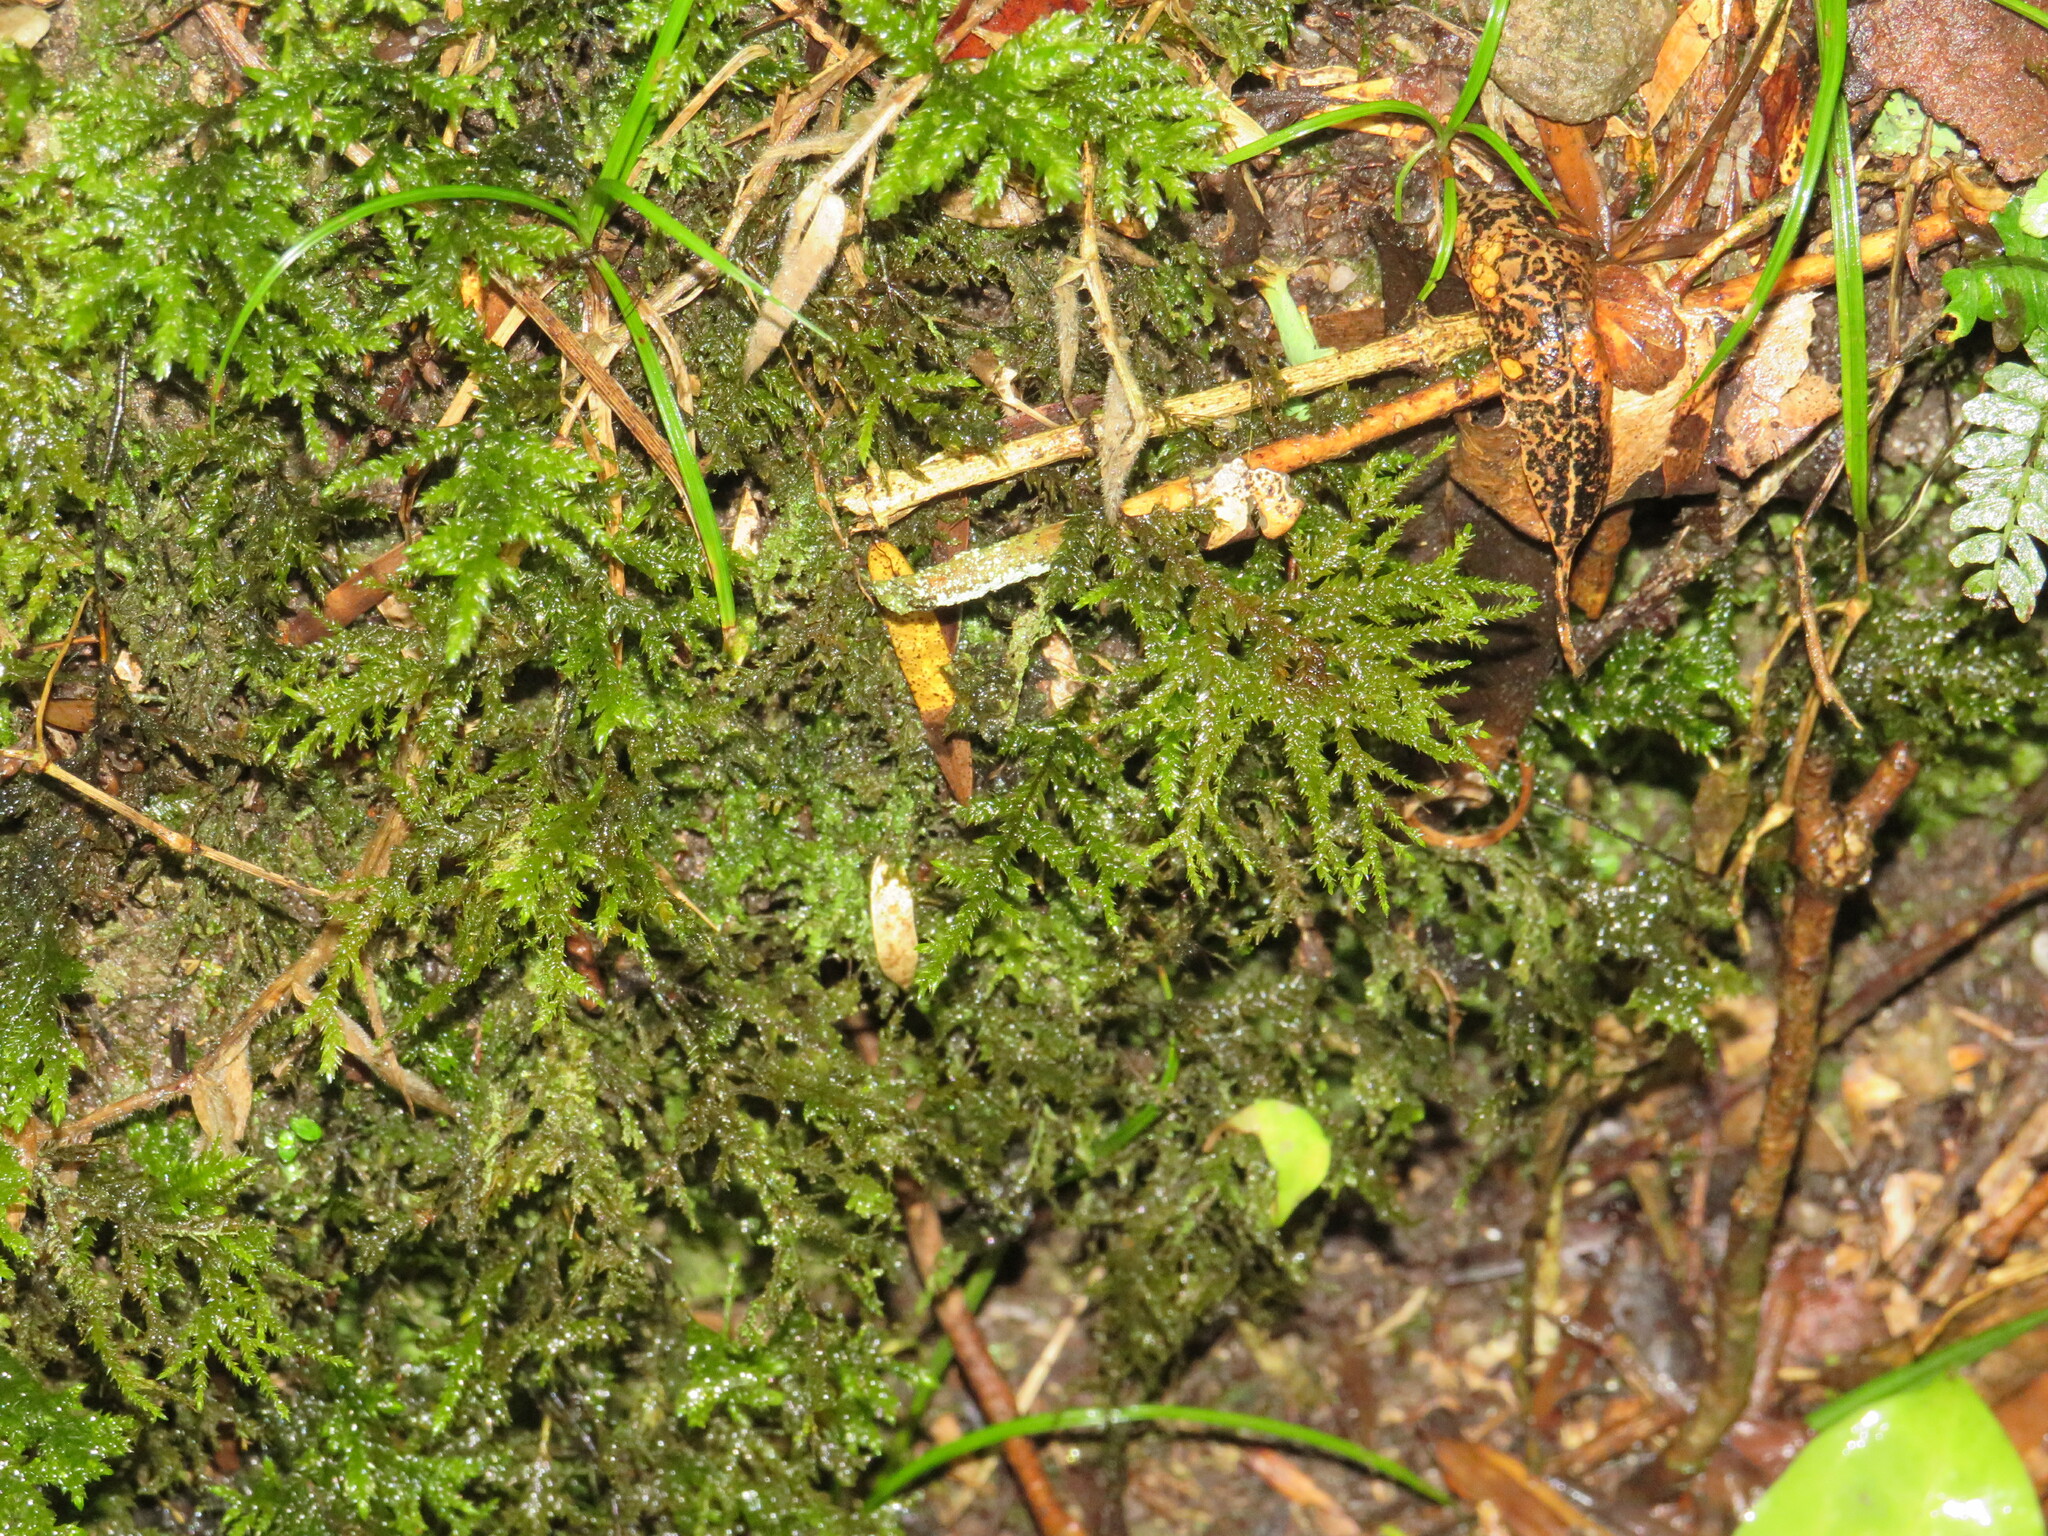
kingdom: Plantae
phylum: Bryophyta
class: Bryopsida
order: Hypnales
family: Neckeraceae
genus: Porotrichum
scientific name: Porotrichum madagassum
